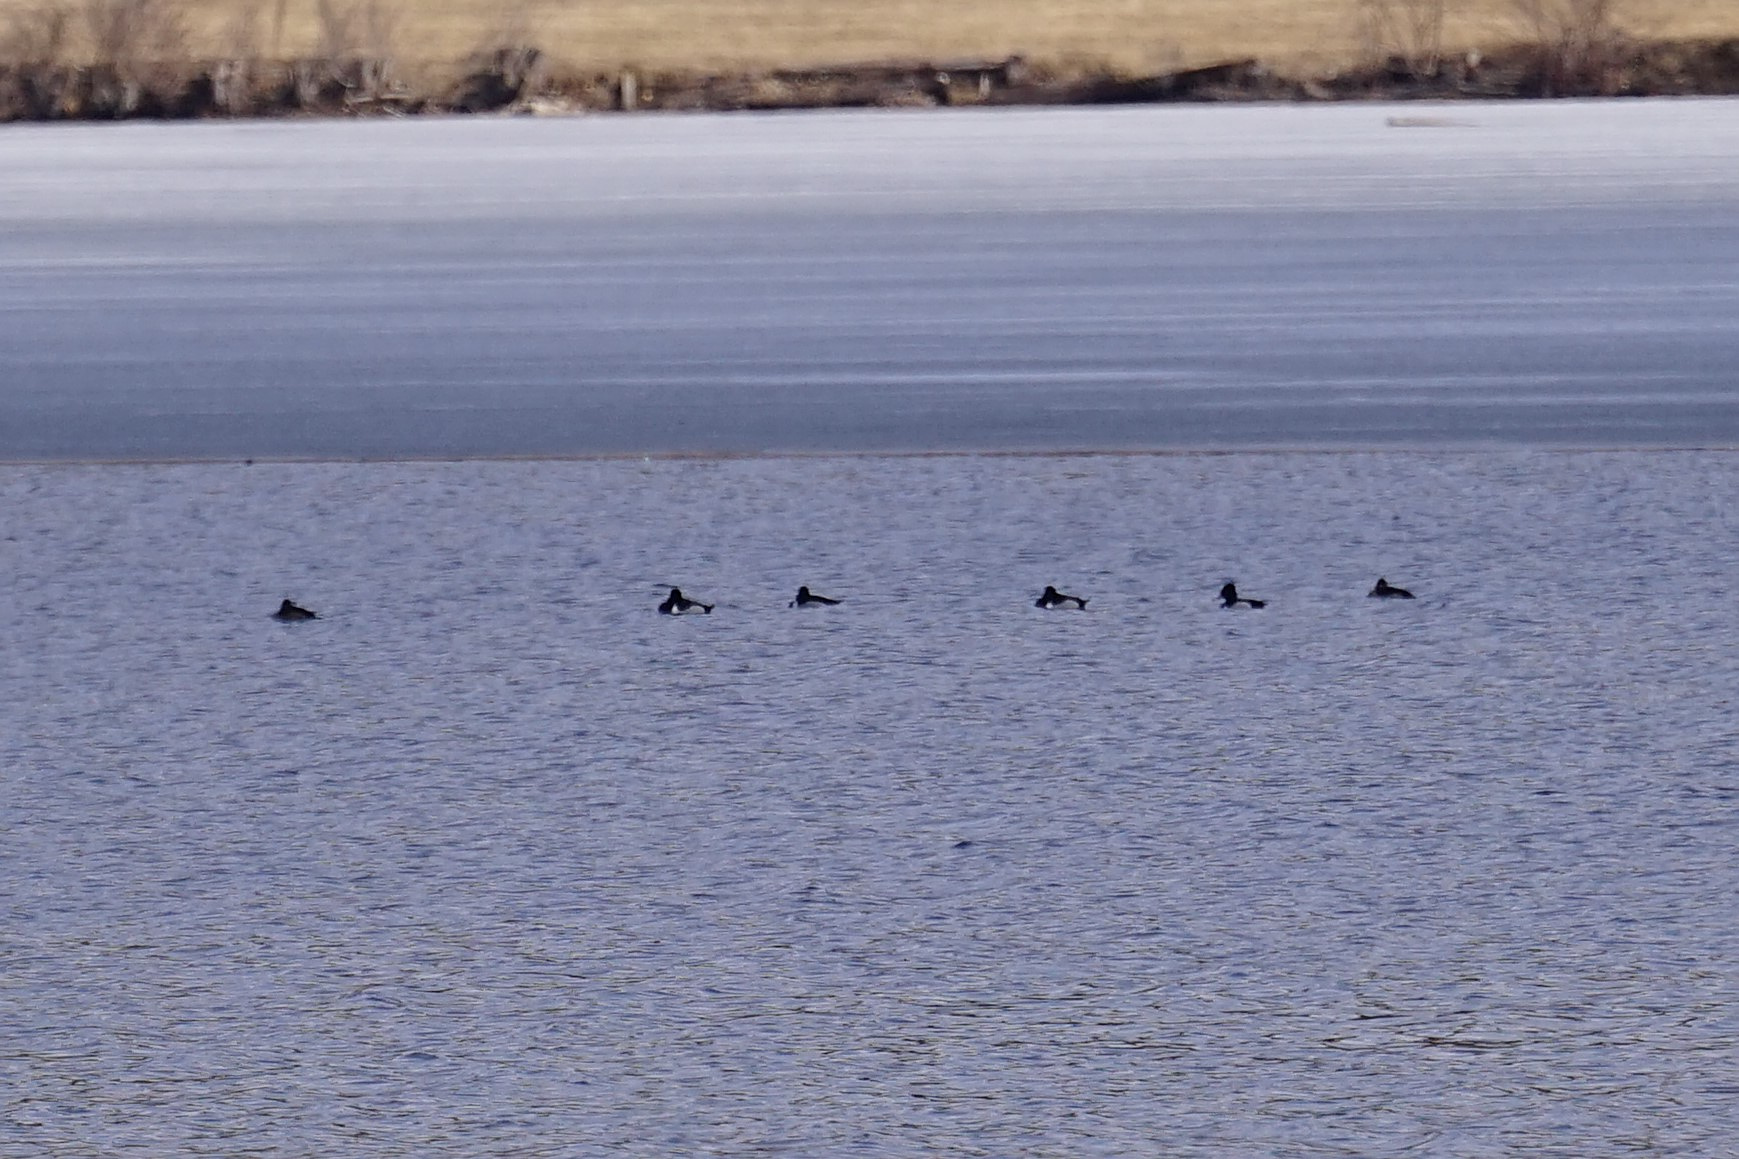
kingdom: Animalia
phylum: Chordata
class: Aves
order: Anseriformes
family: Anatidae
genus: Aythya
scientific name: Aythya collaris
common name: Ring-necked duck
